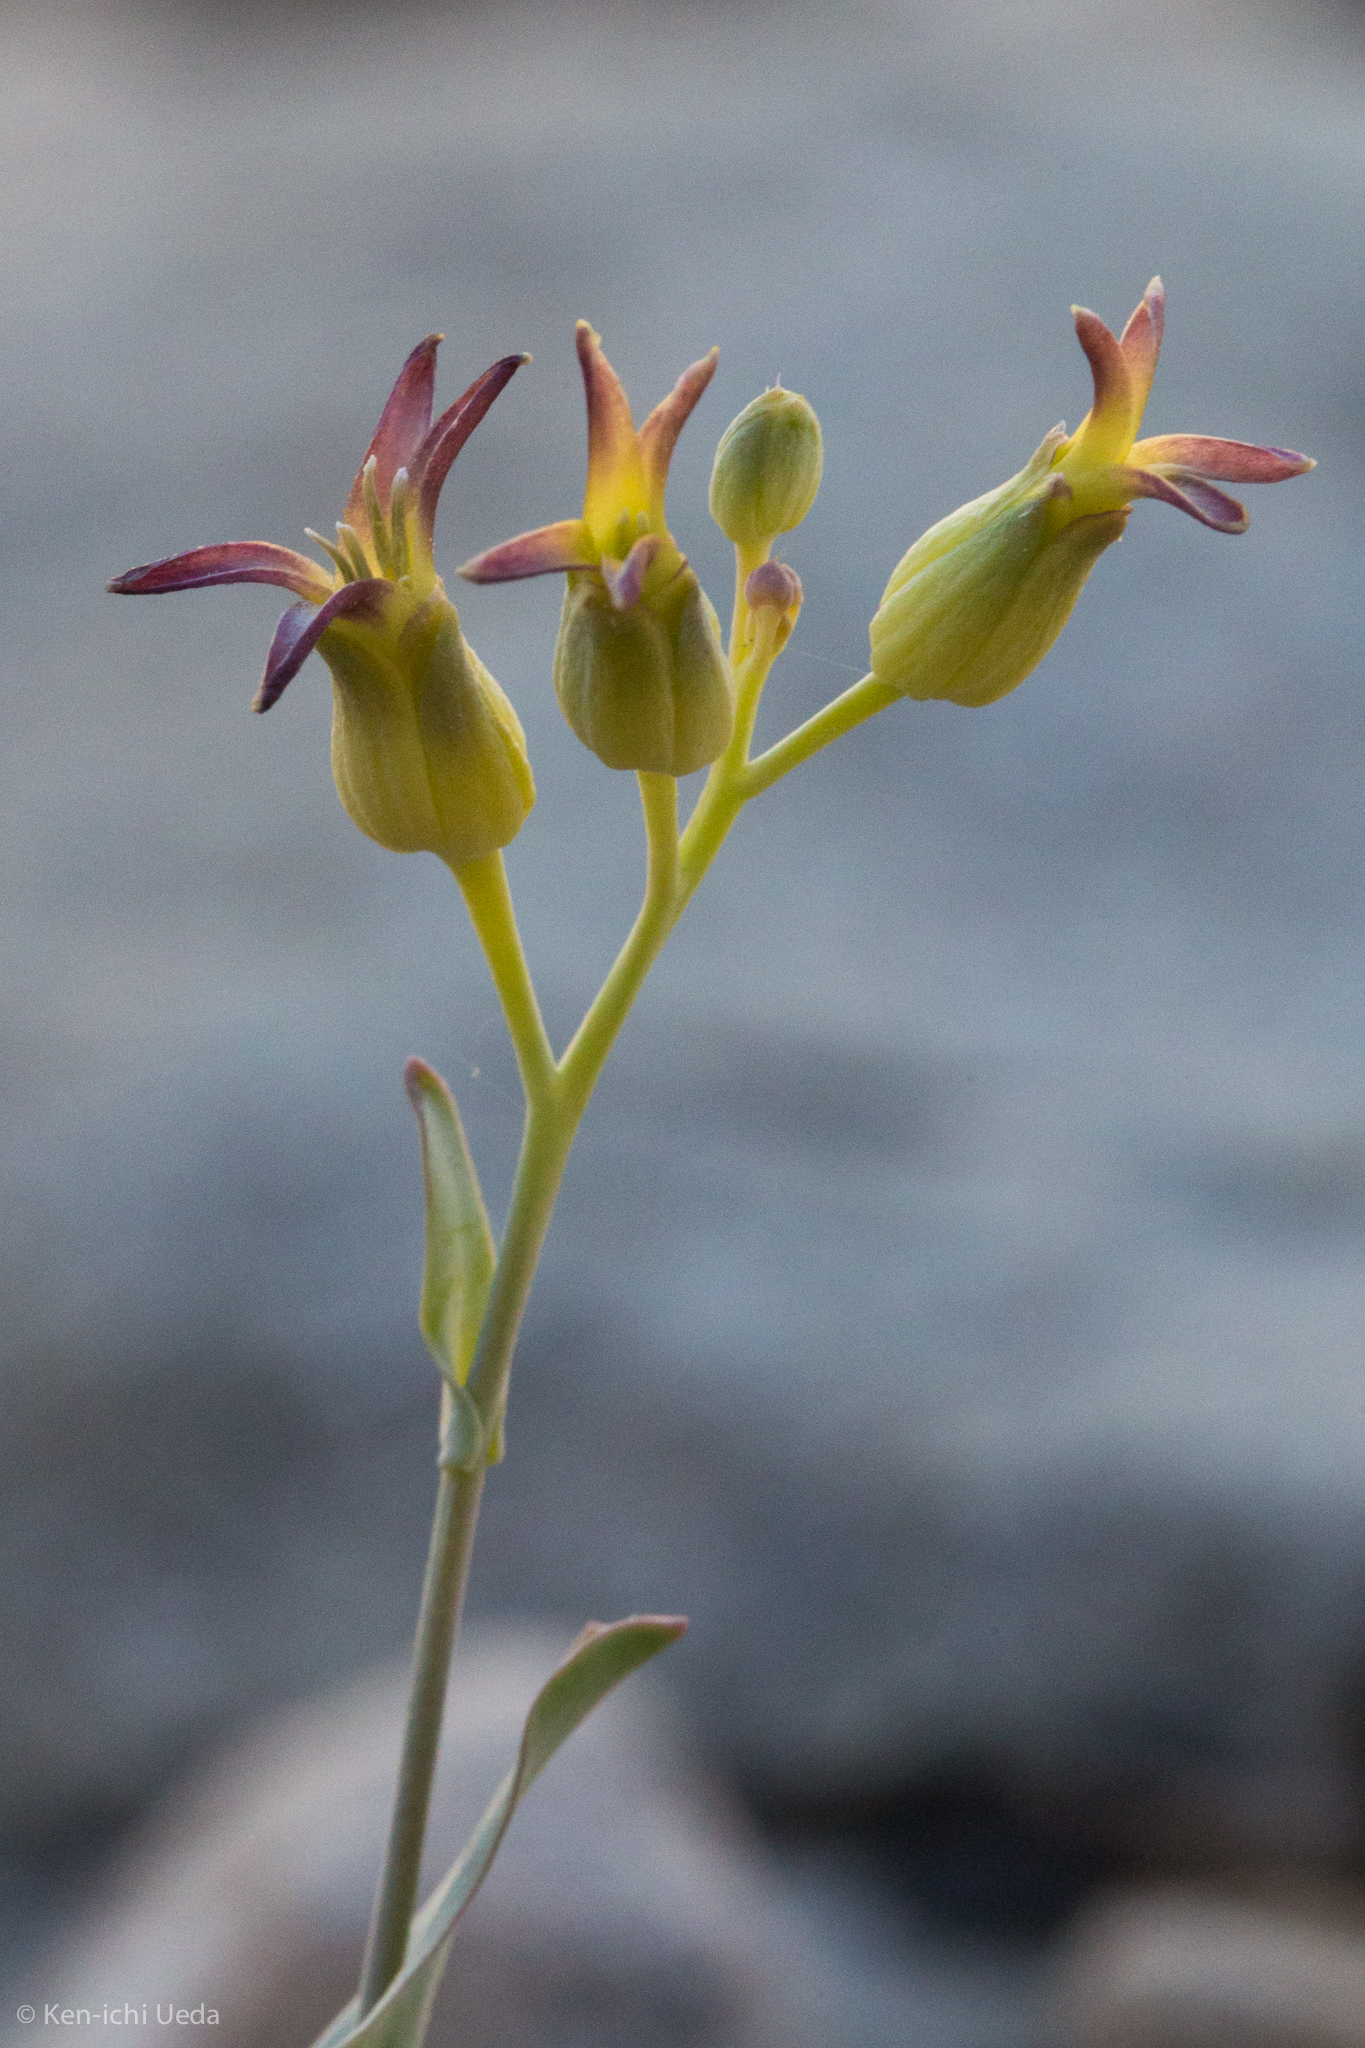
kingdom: Plantae
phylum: Tracheophyta
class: Magnoliopsida
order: Brassicales
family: Brassicaceae
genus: Streptanthus
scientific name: Streptanthus cordatus
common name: Heart-leaf jewel-flower
